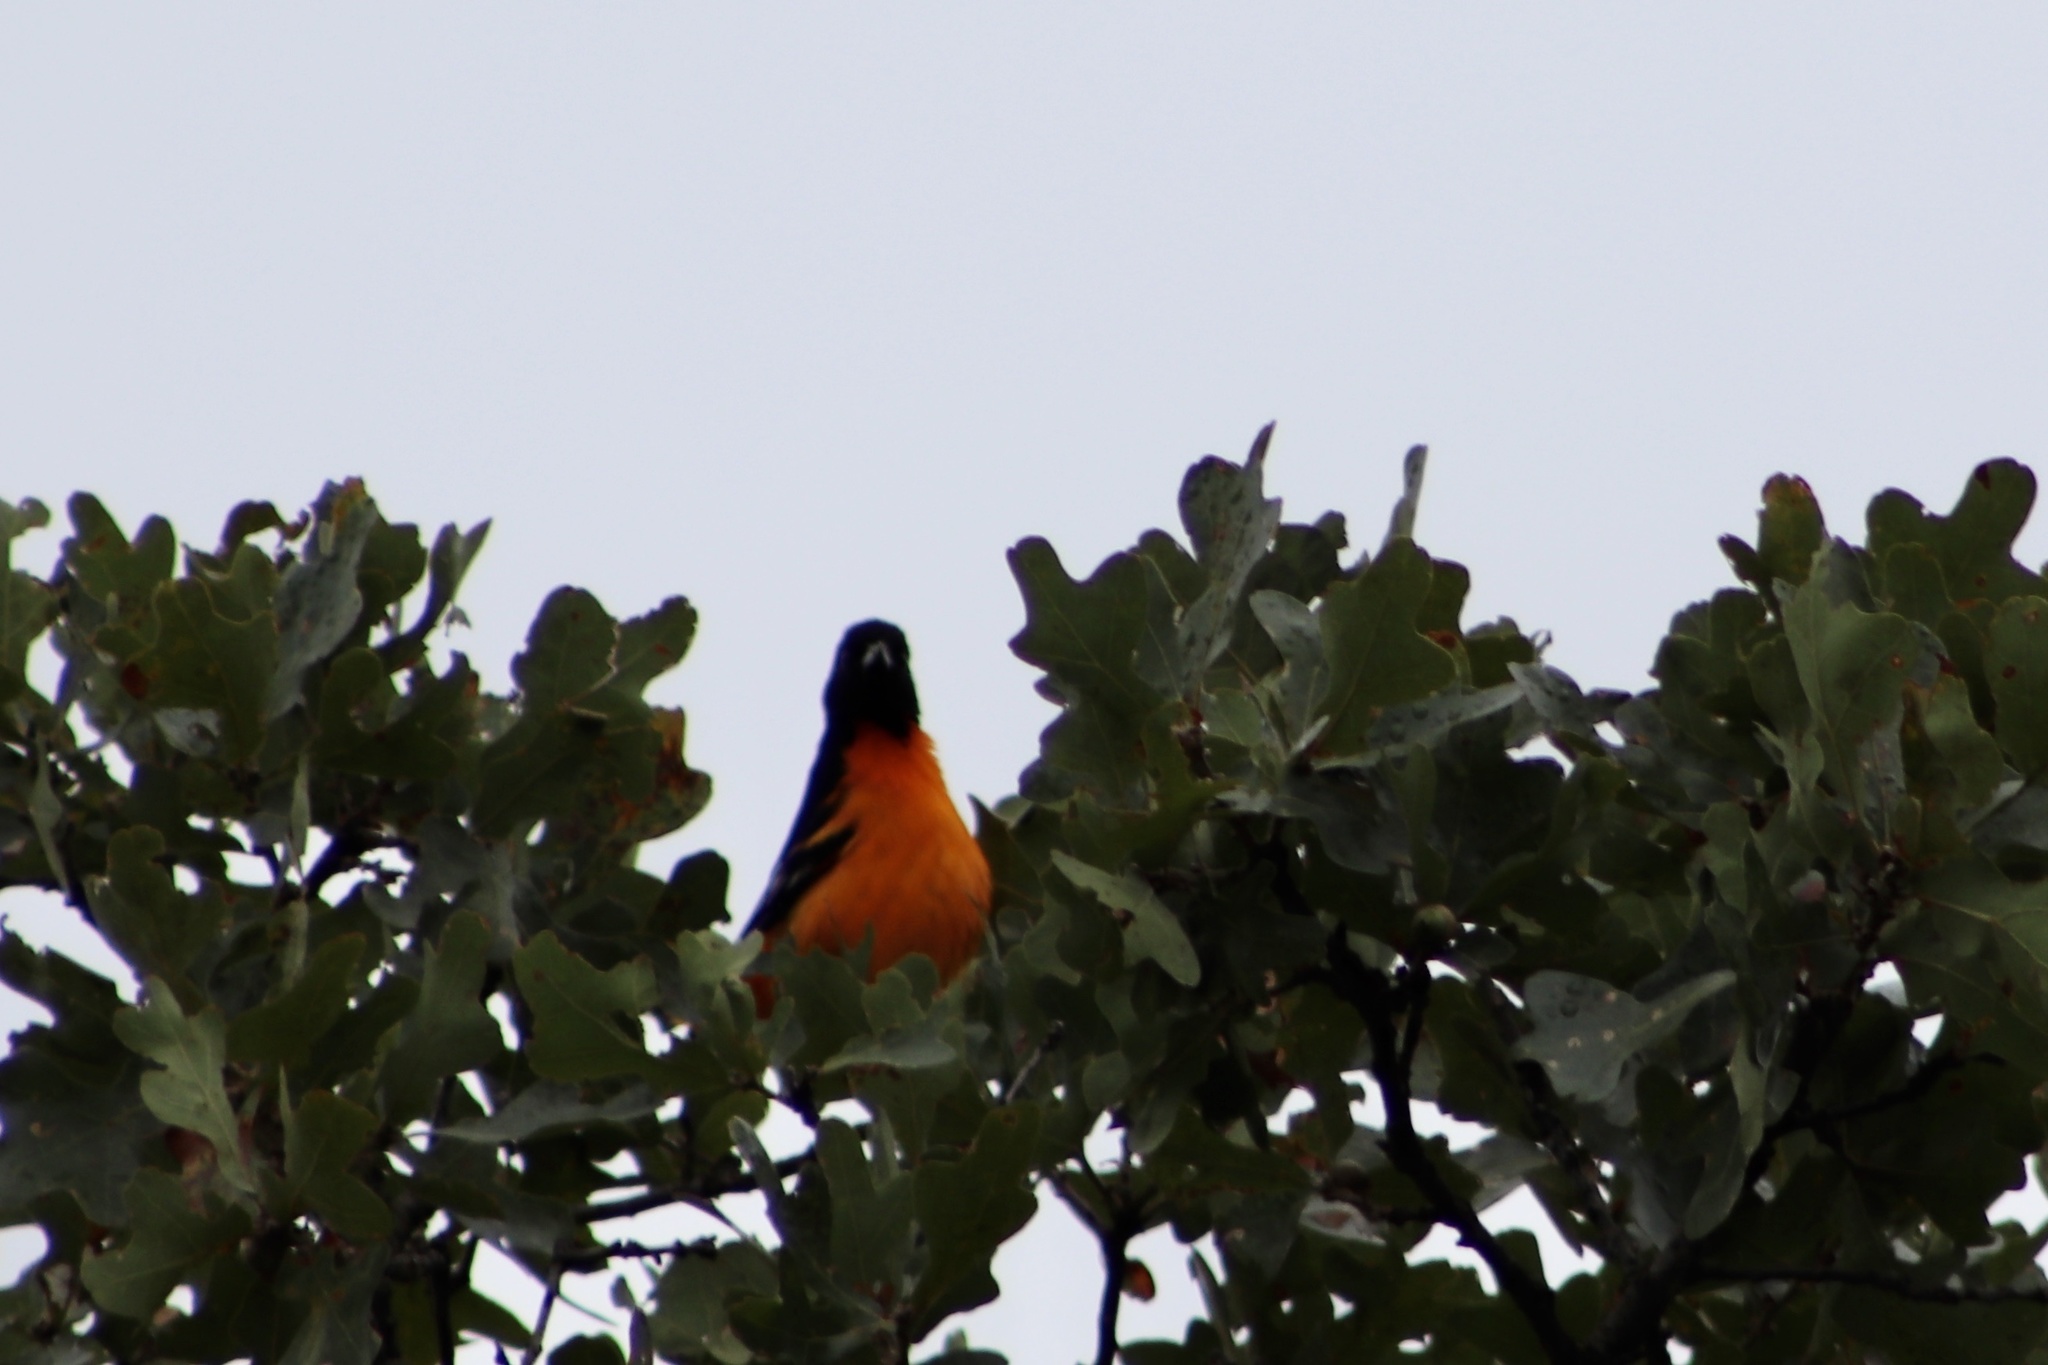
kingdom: Animalia
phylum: Chordata
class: Aves
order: Passeriformes
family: Icteridae
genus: Icterus
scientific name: Icterus galbula
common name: Baltimore oriole
